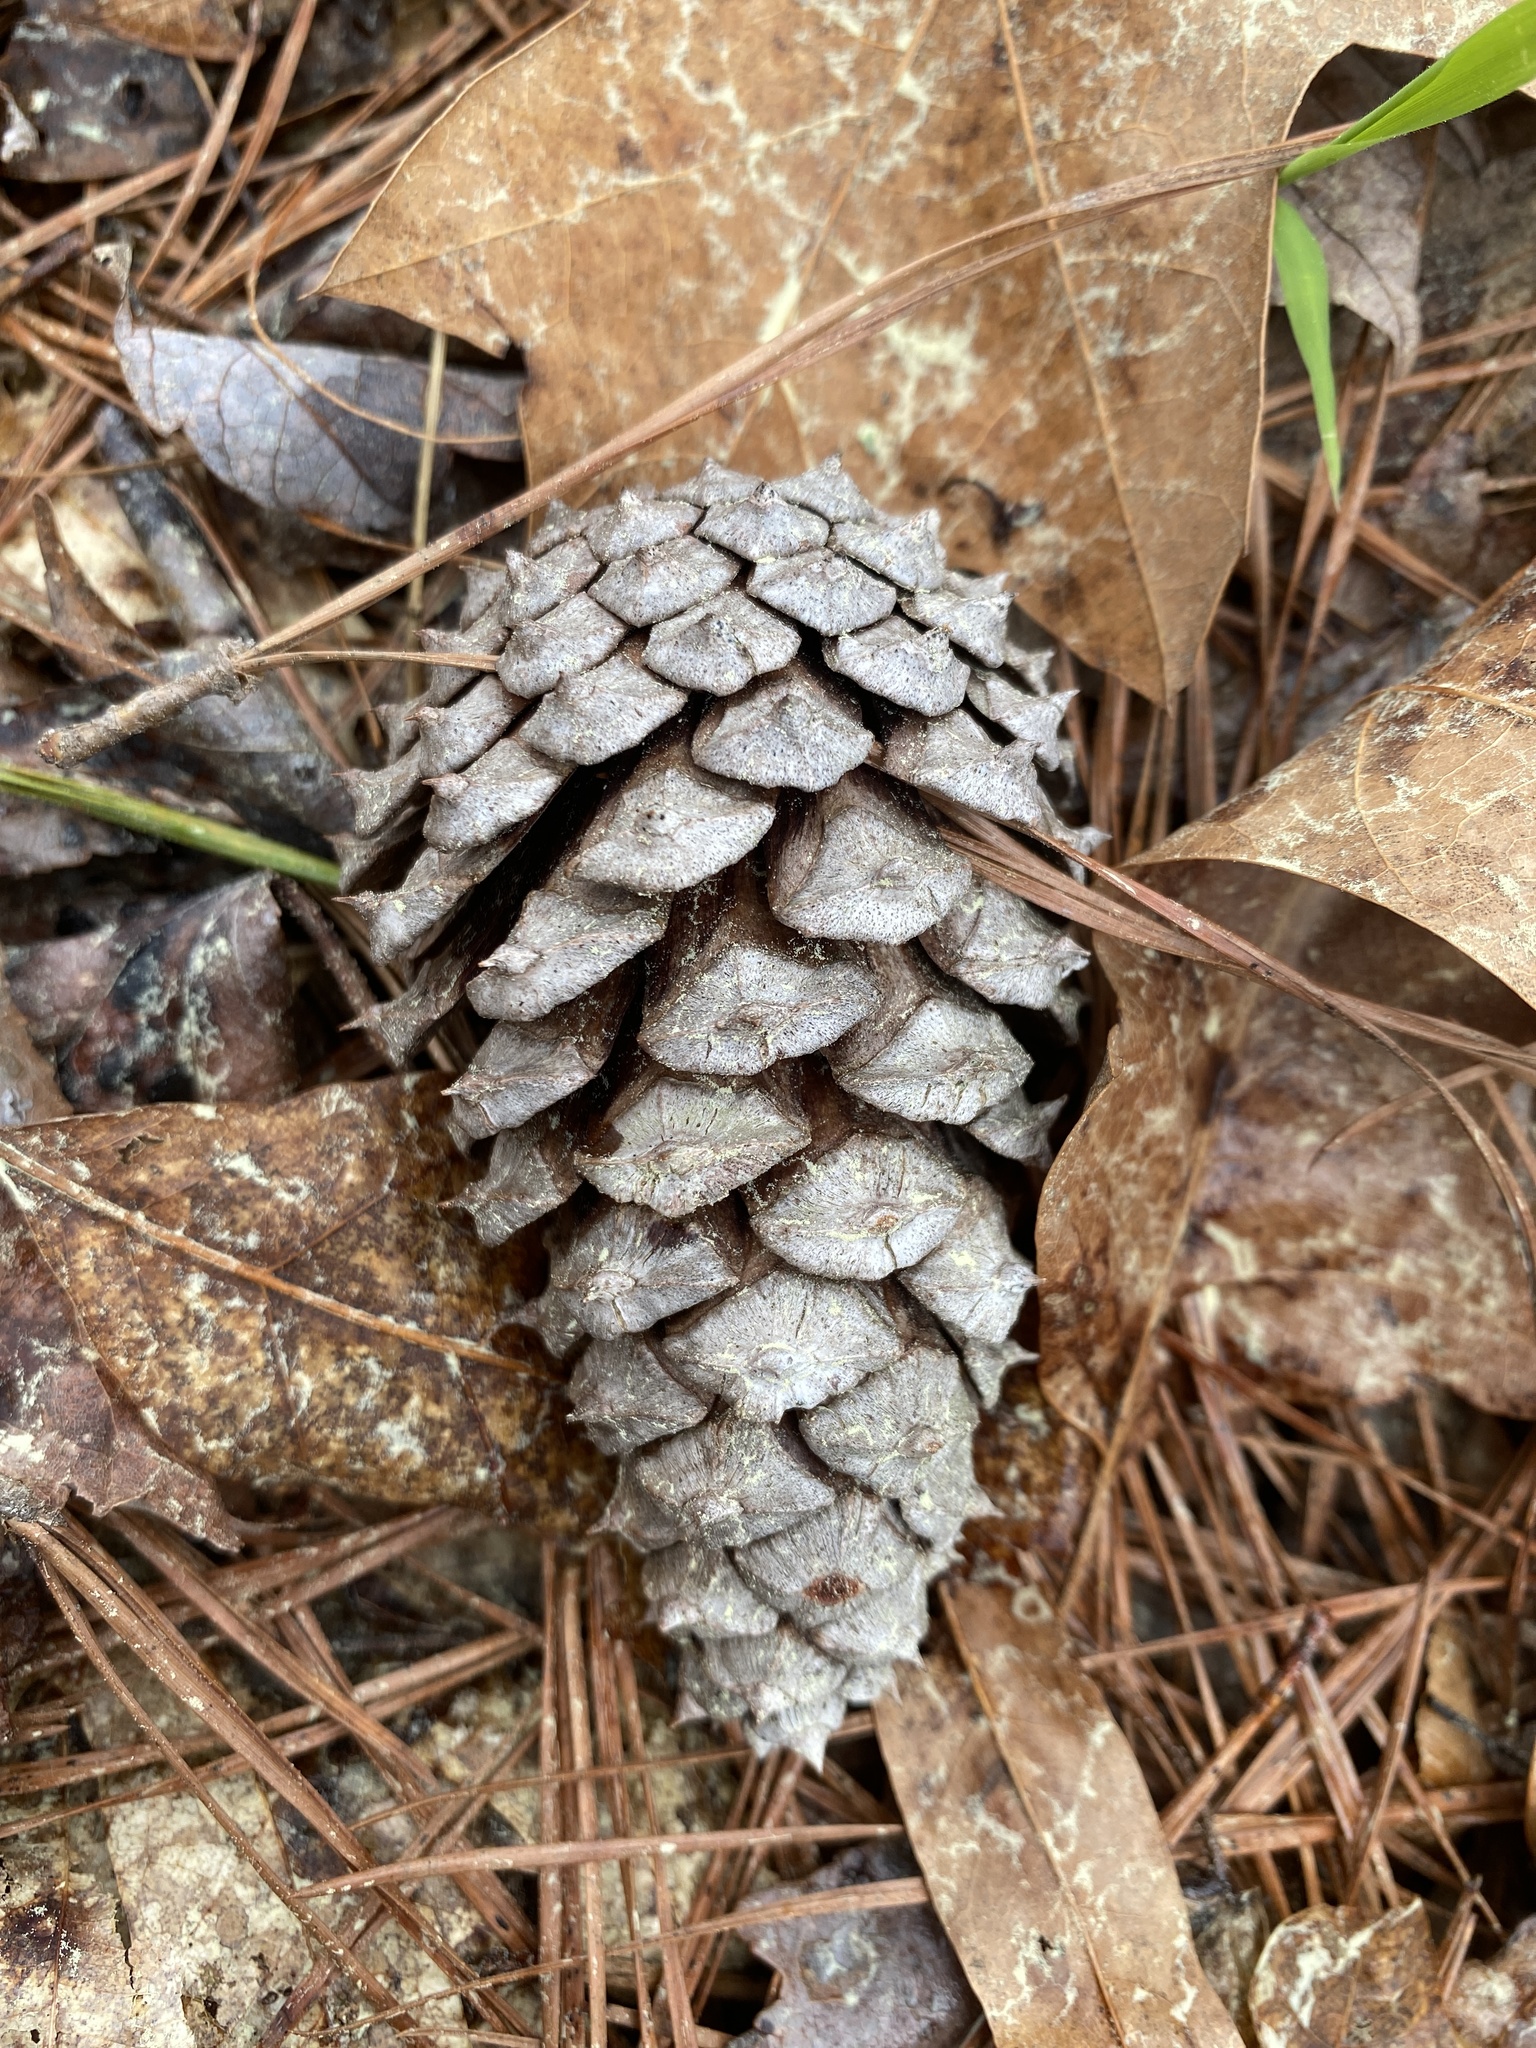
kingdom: Plantae
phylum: Tracheophyta
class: Pinopsida
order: Pinales
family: Pinaceae
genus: Pinus
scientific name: Pinus taeda
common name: Loblolly pine
